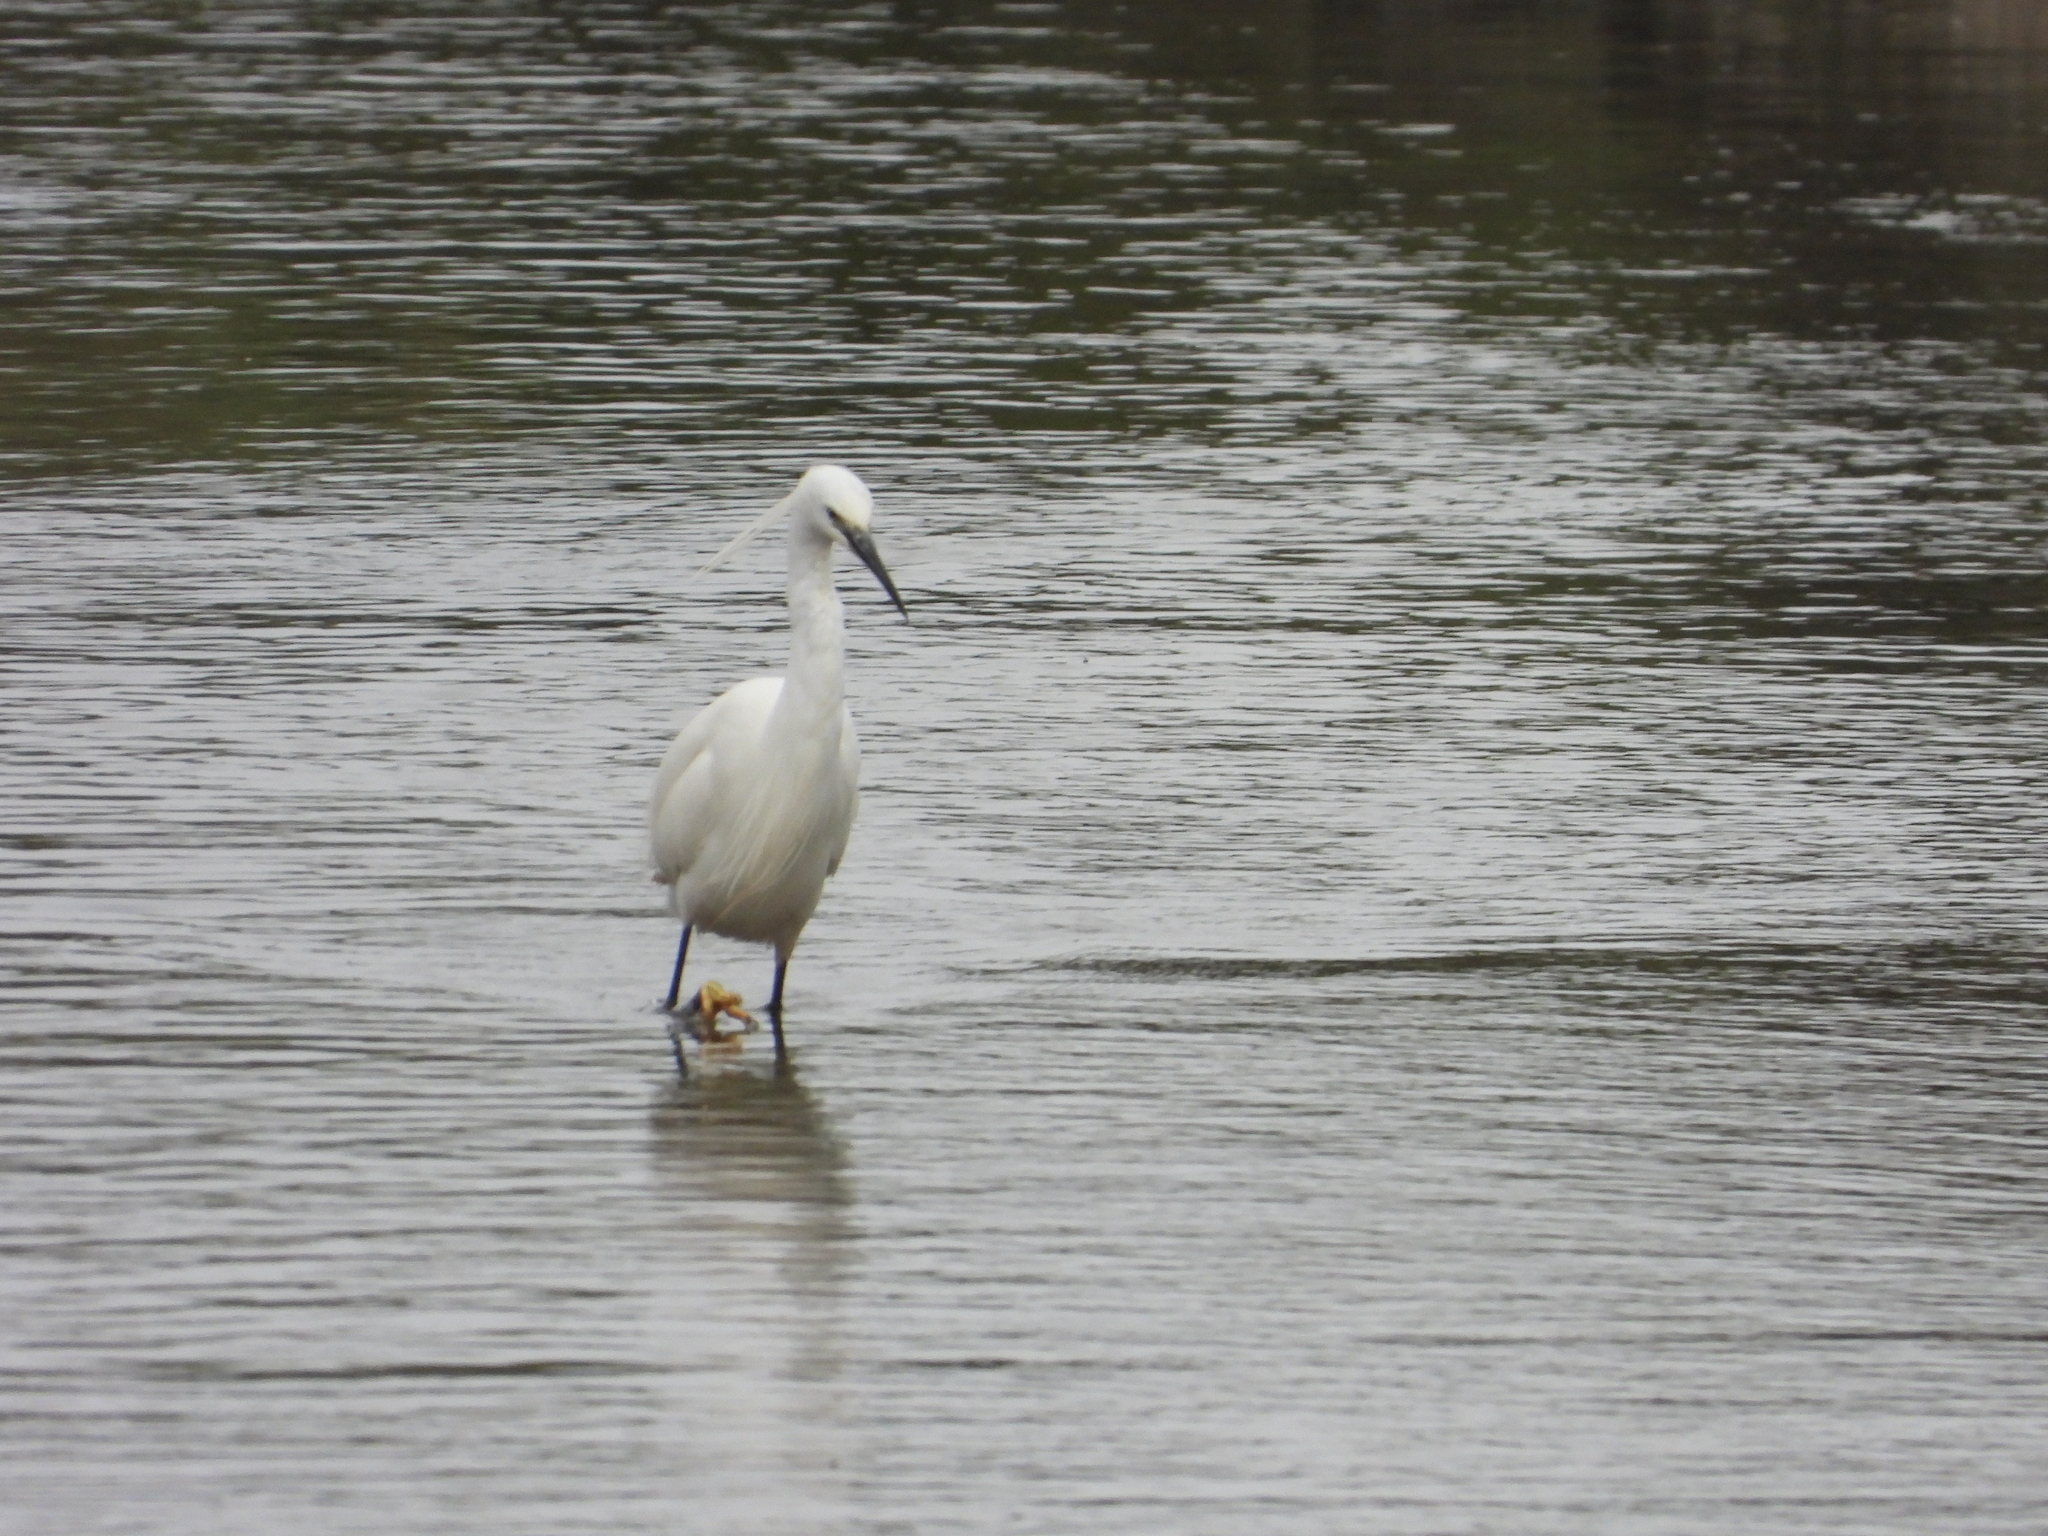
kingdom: Animalia
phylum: Chordata
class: Aves
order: Pelecaniformes
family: Ardeidae
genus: Egretta
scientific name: Egretta garzetta
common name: Little egret
